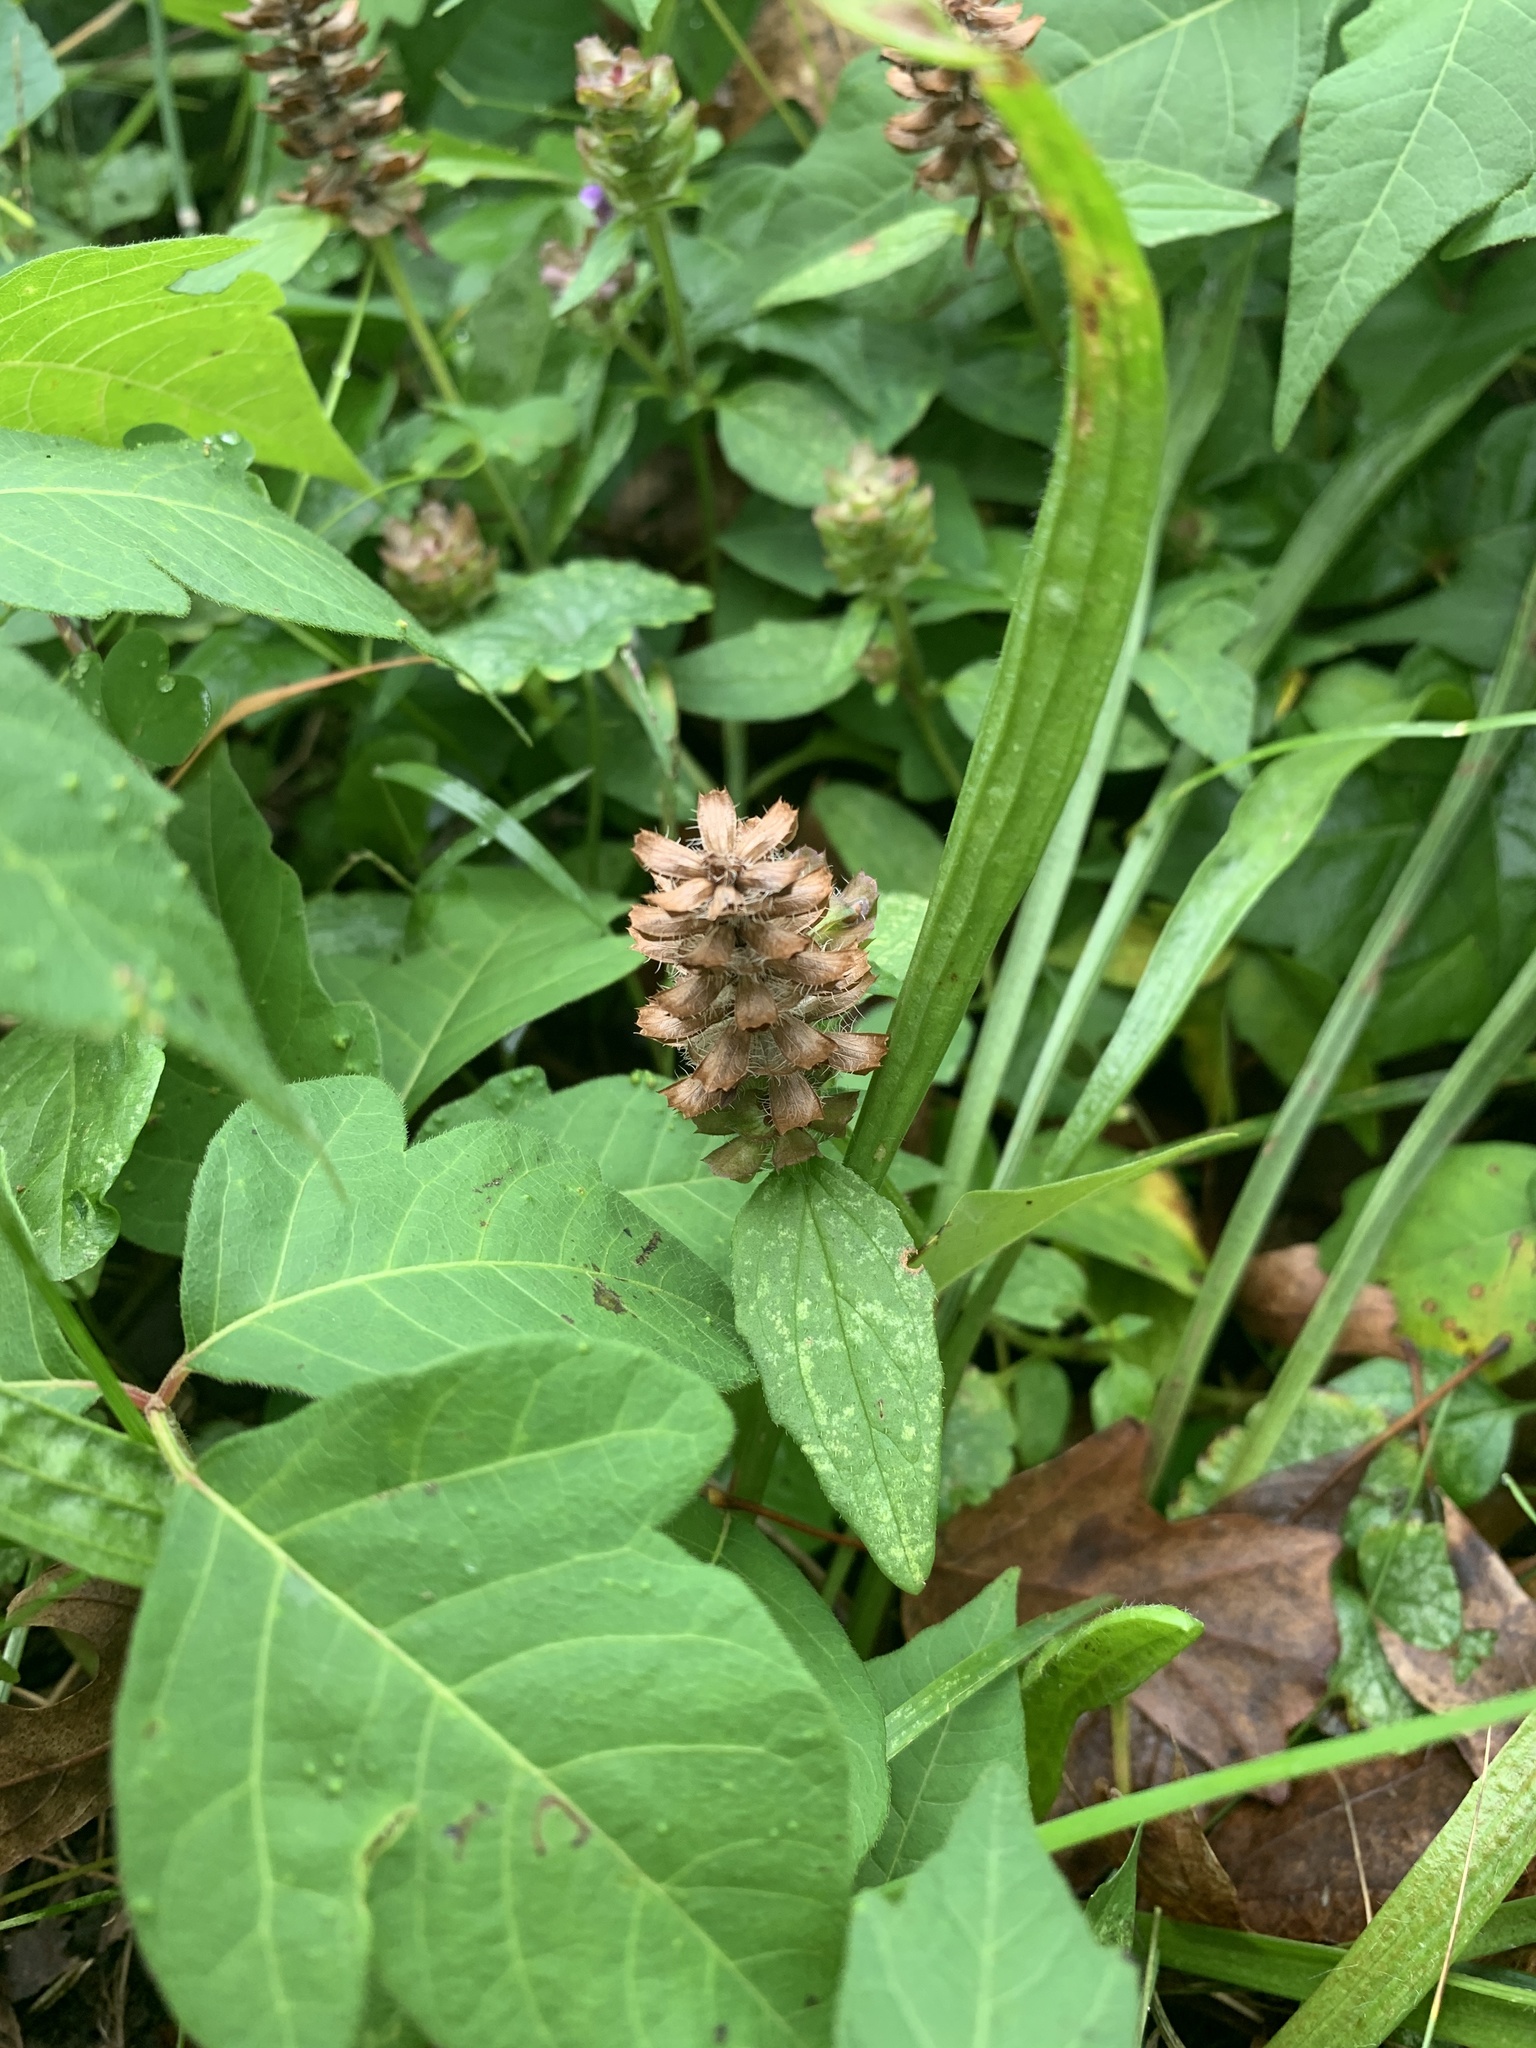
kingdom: Plantae
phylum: Tracheophyta
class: Magnoliopsida
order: Lamiales
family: Lamiaceae
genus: Prunella
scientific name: Prunella vulgaris
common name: Heal-all
